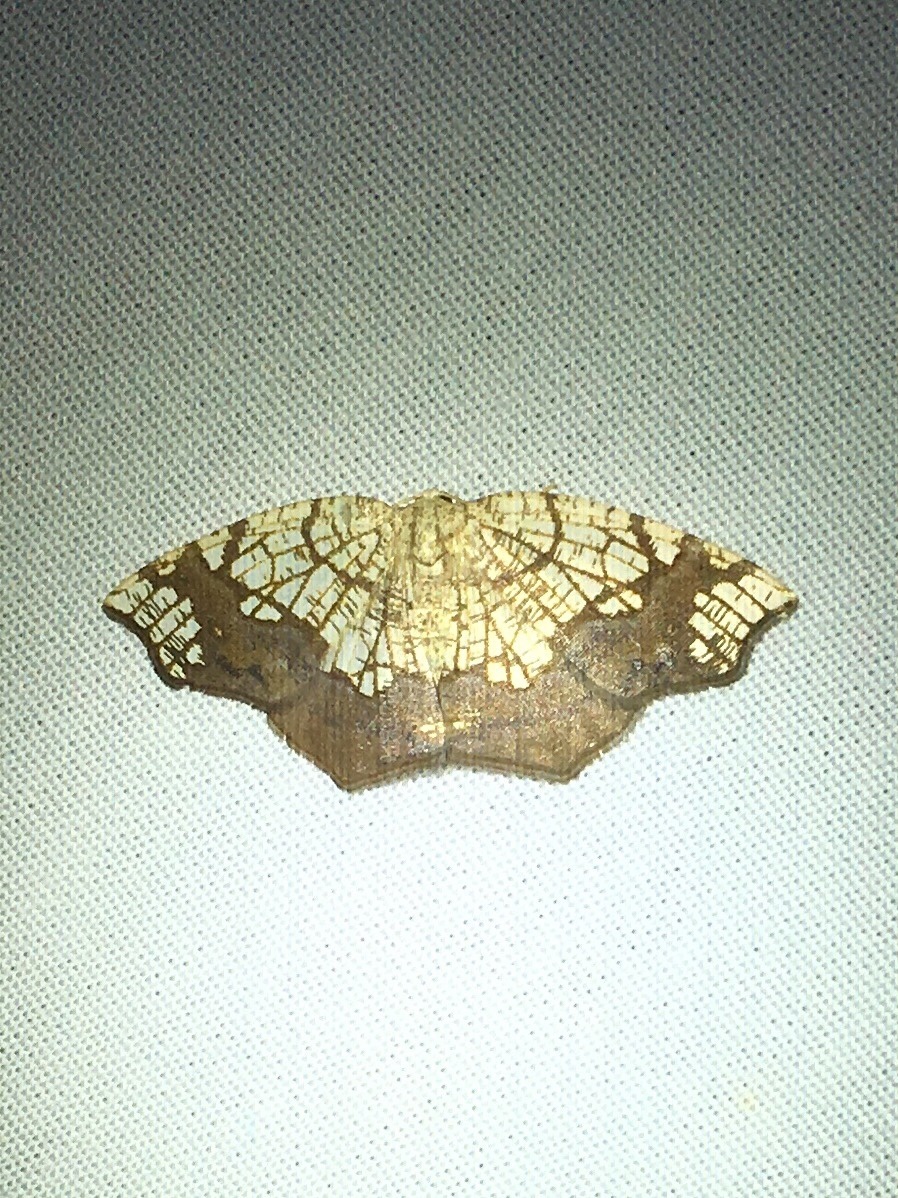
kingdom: Animalia
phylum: Arthropoda
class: Insecta
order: Lepidoptera
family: Geometridae
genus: Nematocampa
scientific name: Nematocampa resistaria
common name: Horned spanworm moth
